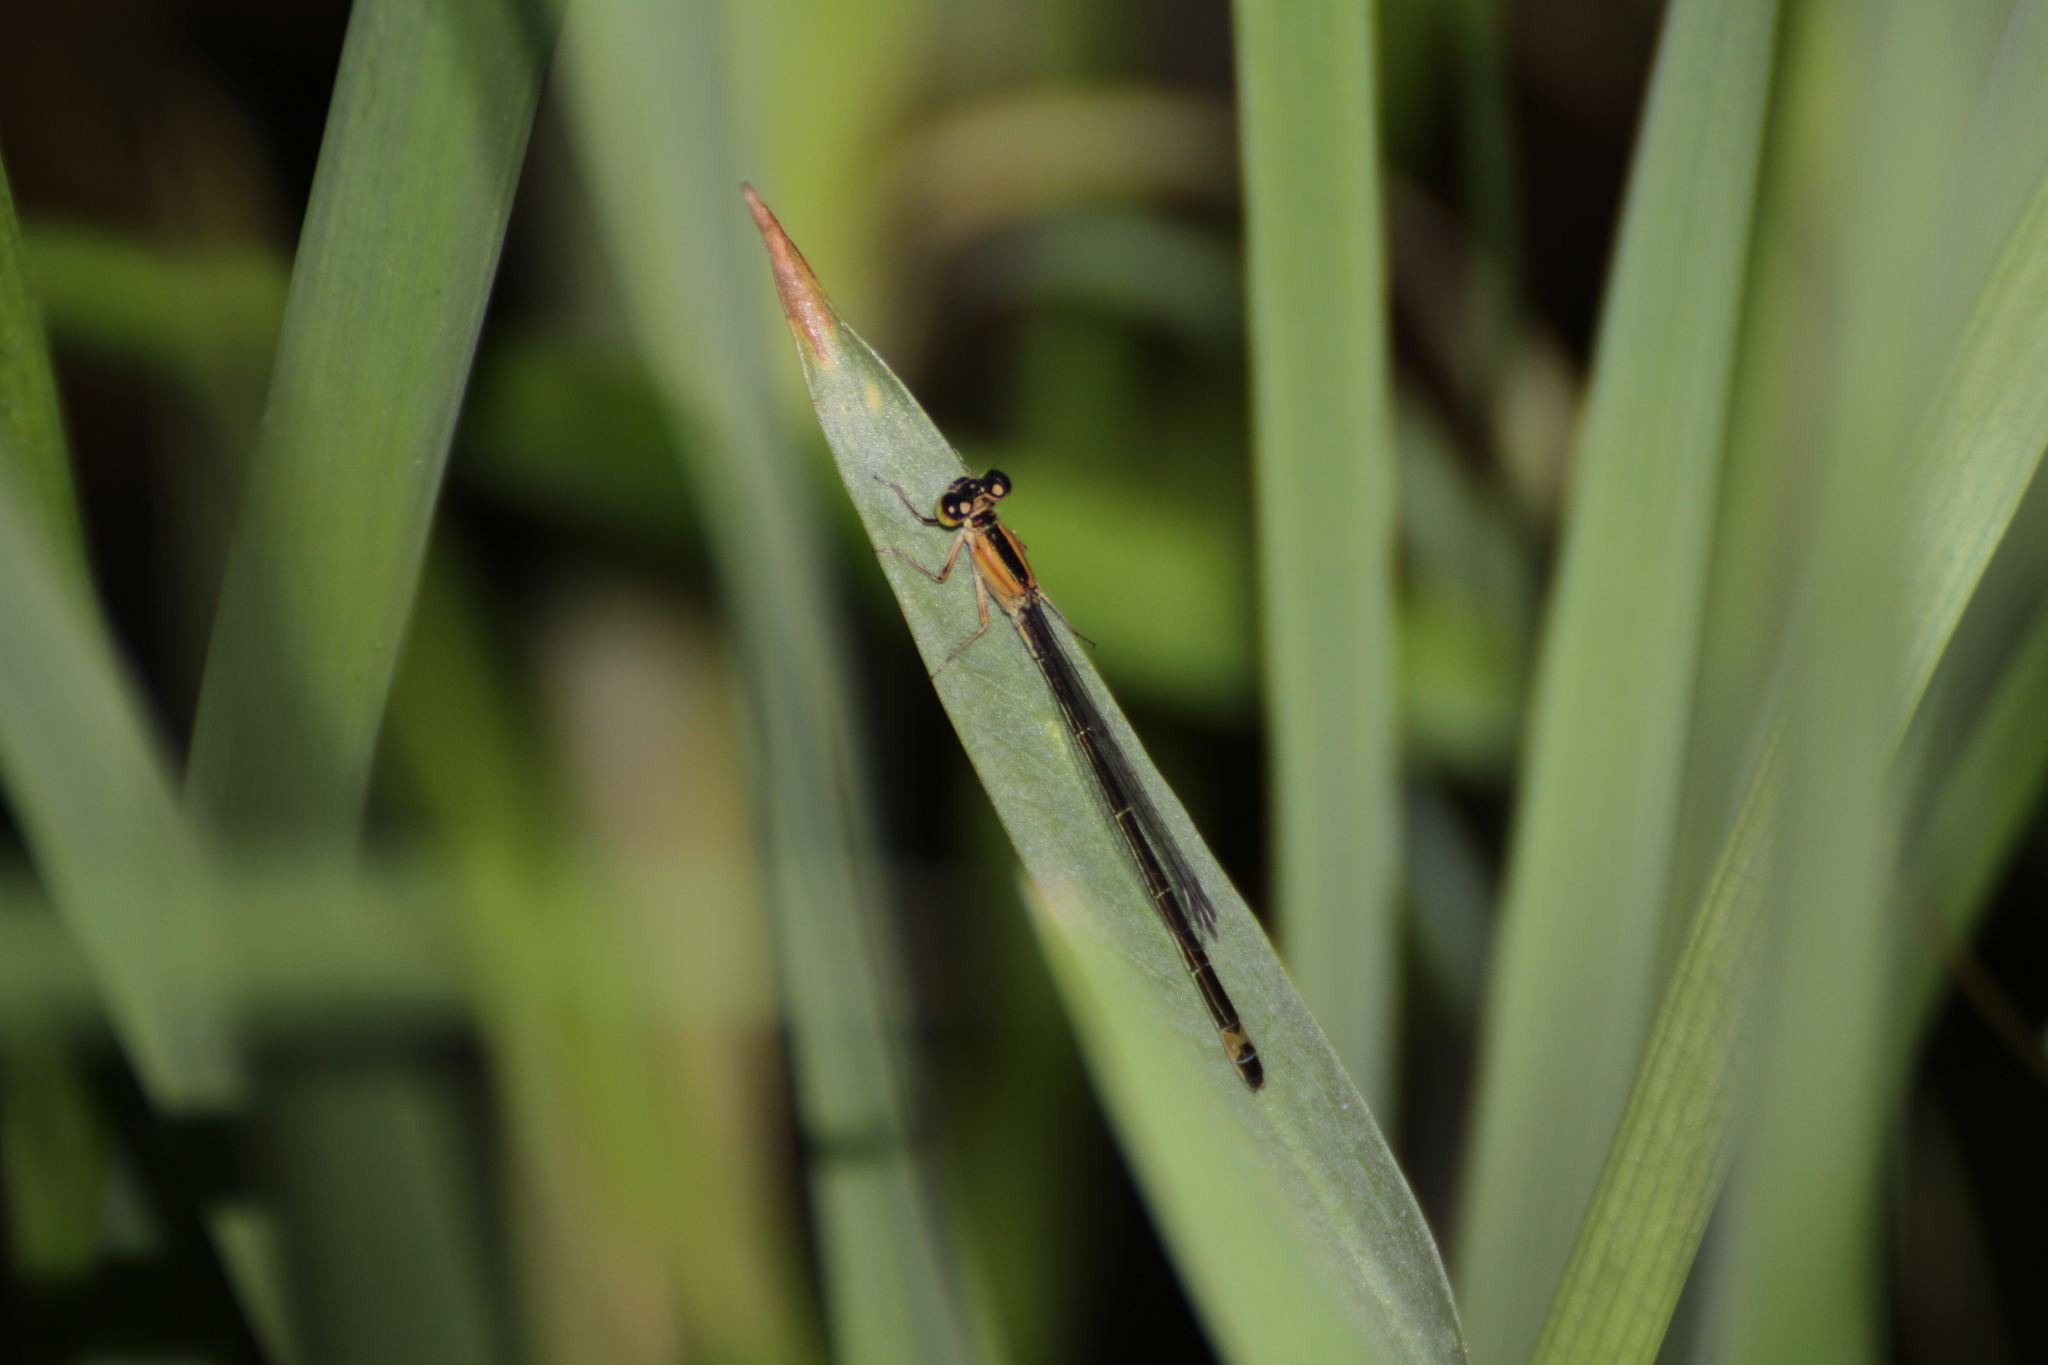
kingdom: Animalia
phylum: Arthropoda
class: Insecta
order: Odonata
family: Coenagrionidae
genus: Ischnura
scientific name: Ischnura elegans
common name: Blue-tailed damselfly
